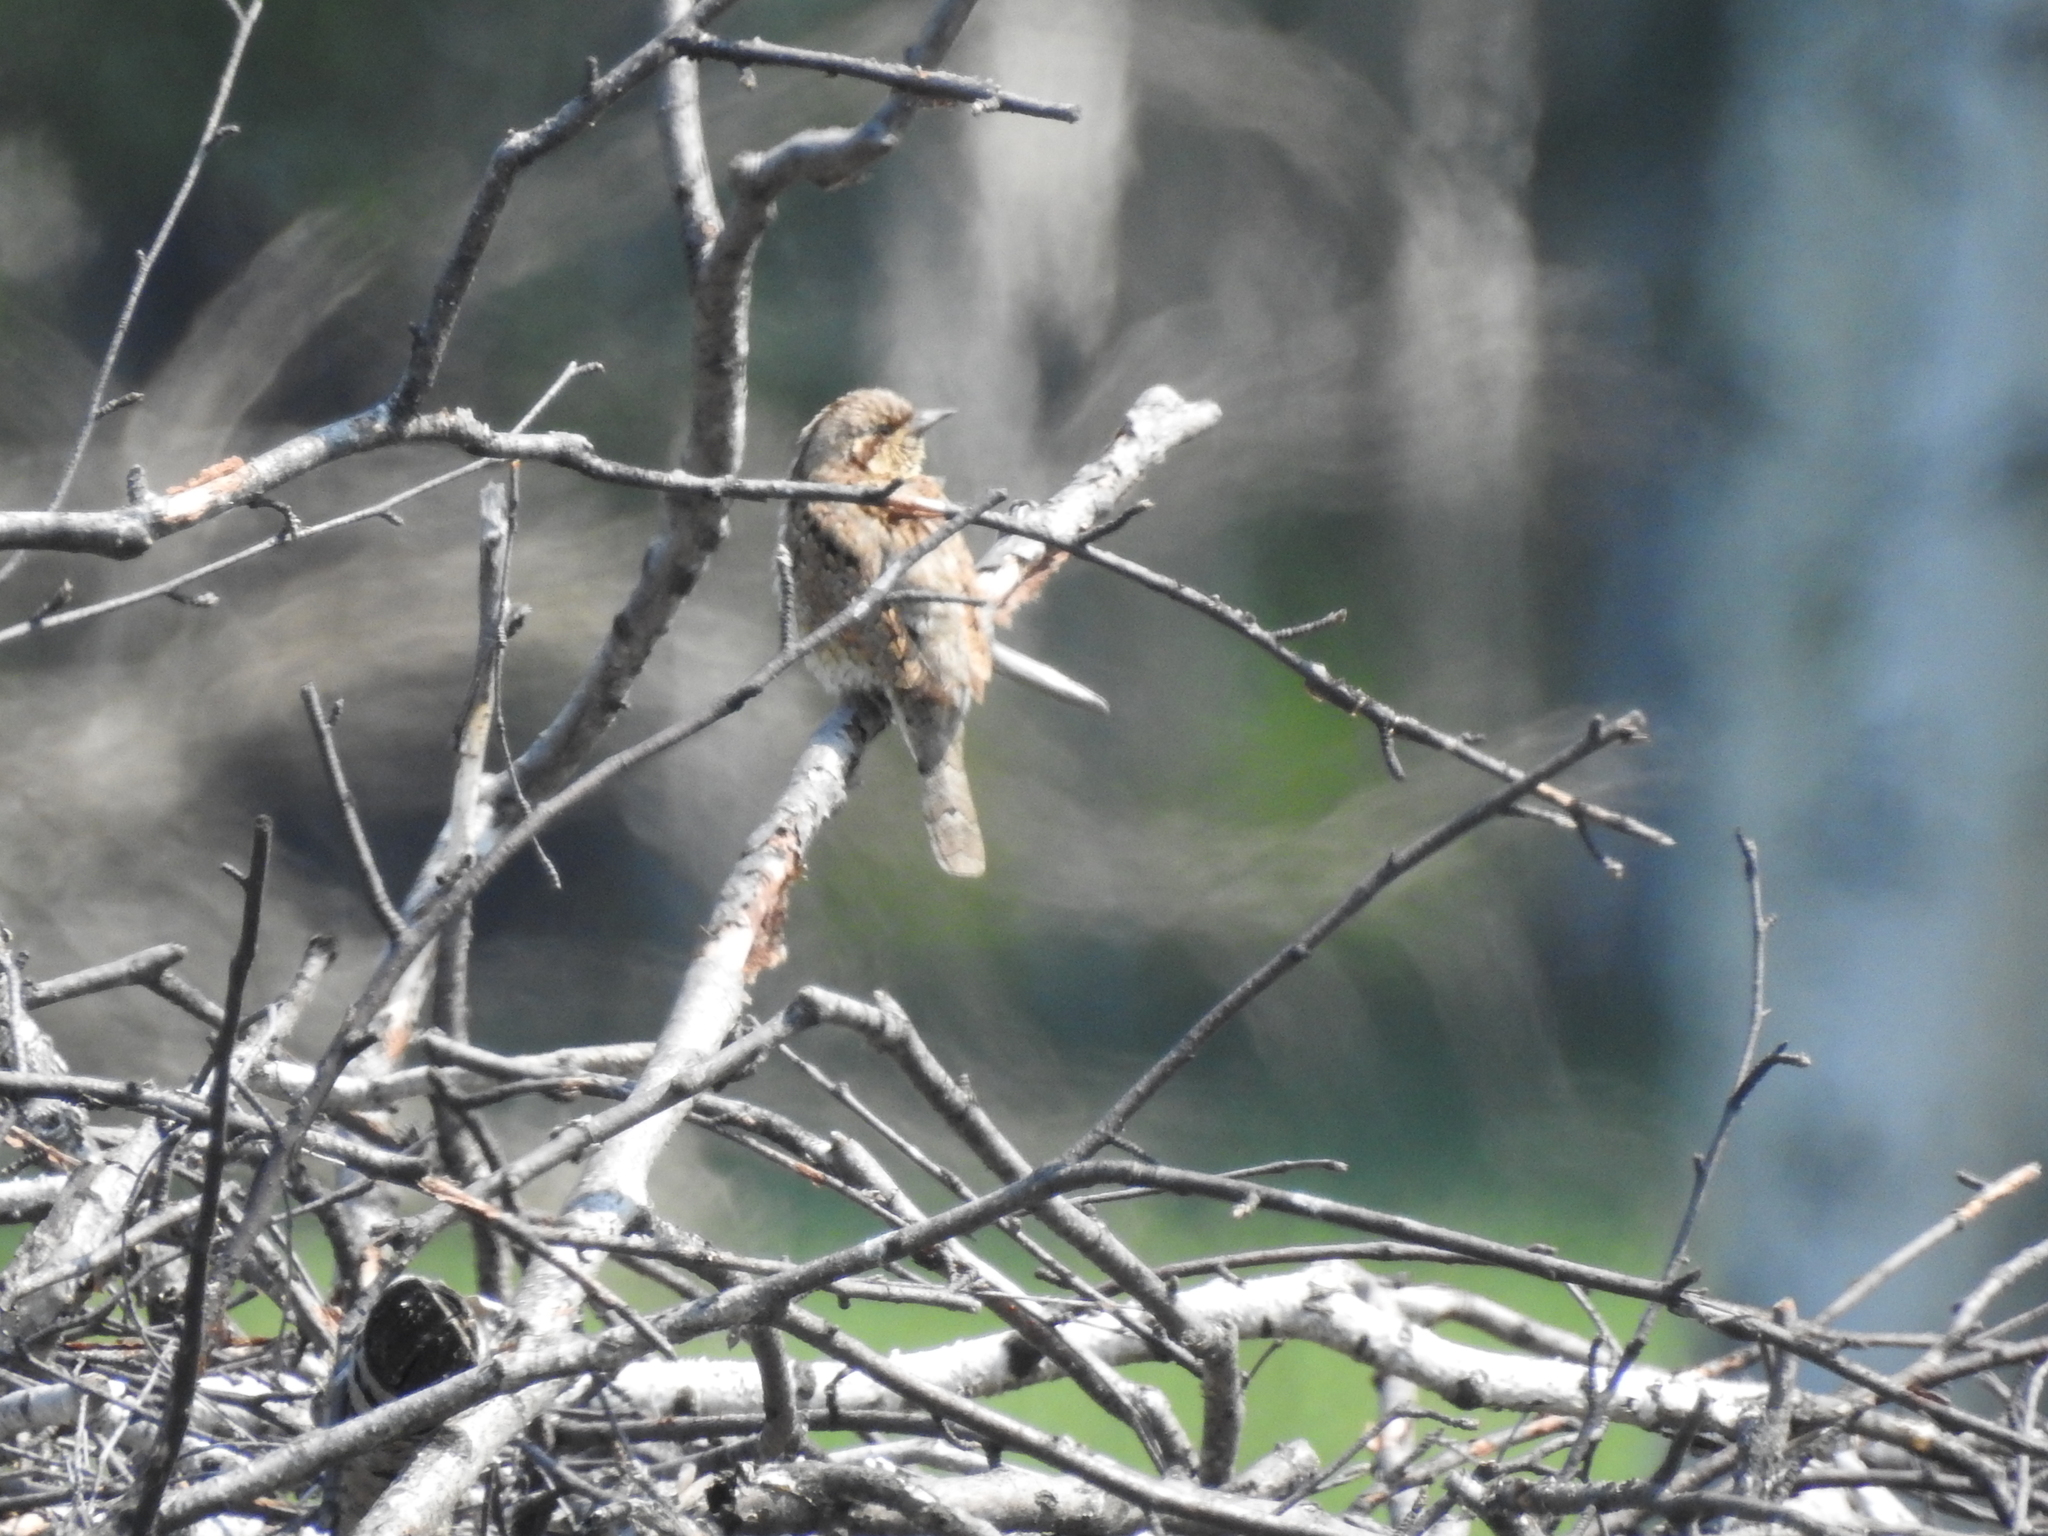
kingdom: Animalia
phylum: Chordata
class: Aves
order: Piciformes
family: Picidae
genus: Jynx
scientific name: Jynx torquilla
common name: Eurasian wryneck
